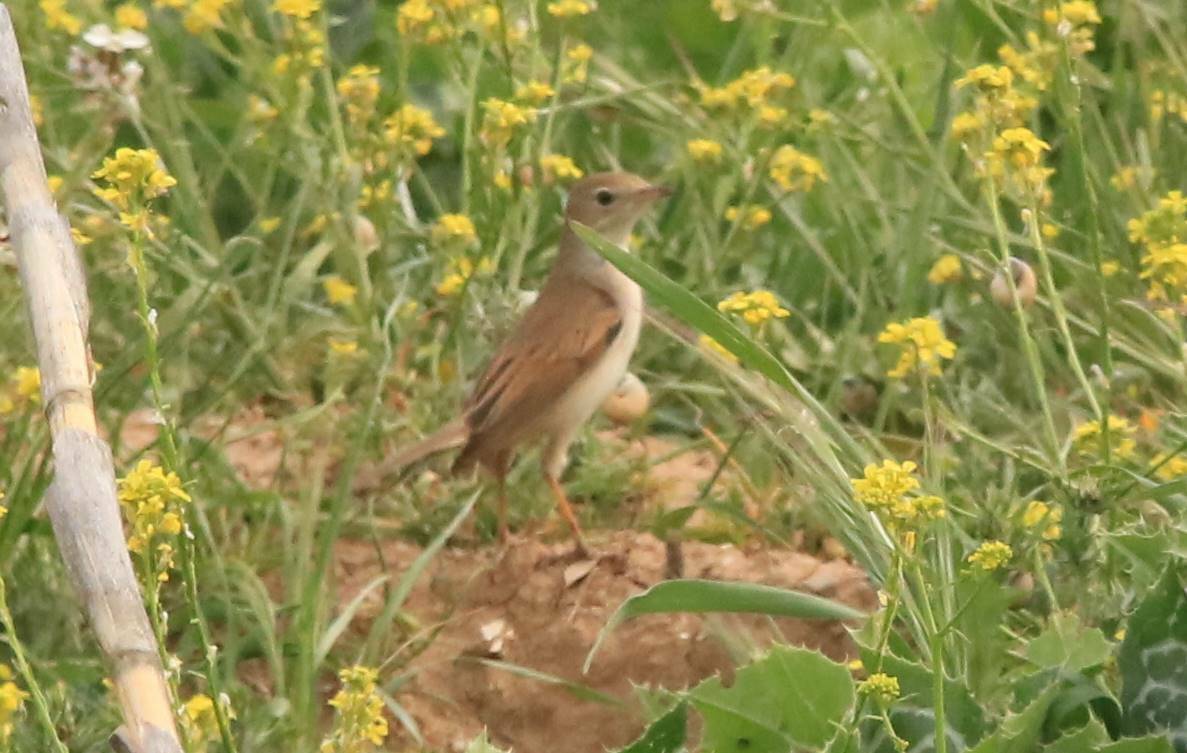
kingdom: Animalia
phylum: Chordata
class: Aves
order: Passeriformes
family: Sylviidae
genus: Sylvia
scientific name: Sylvia communis
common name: Common whitethroat
